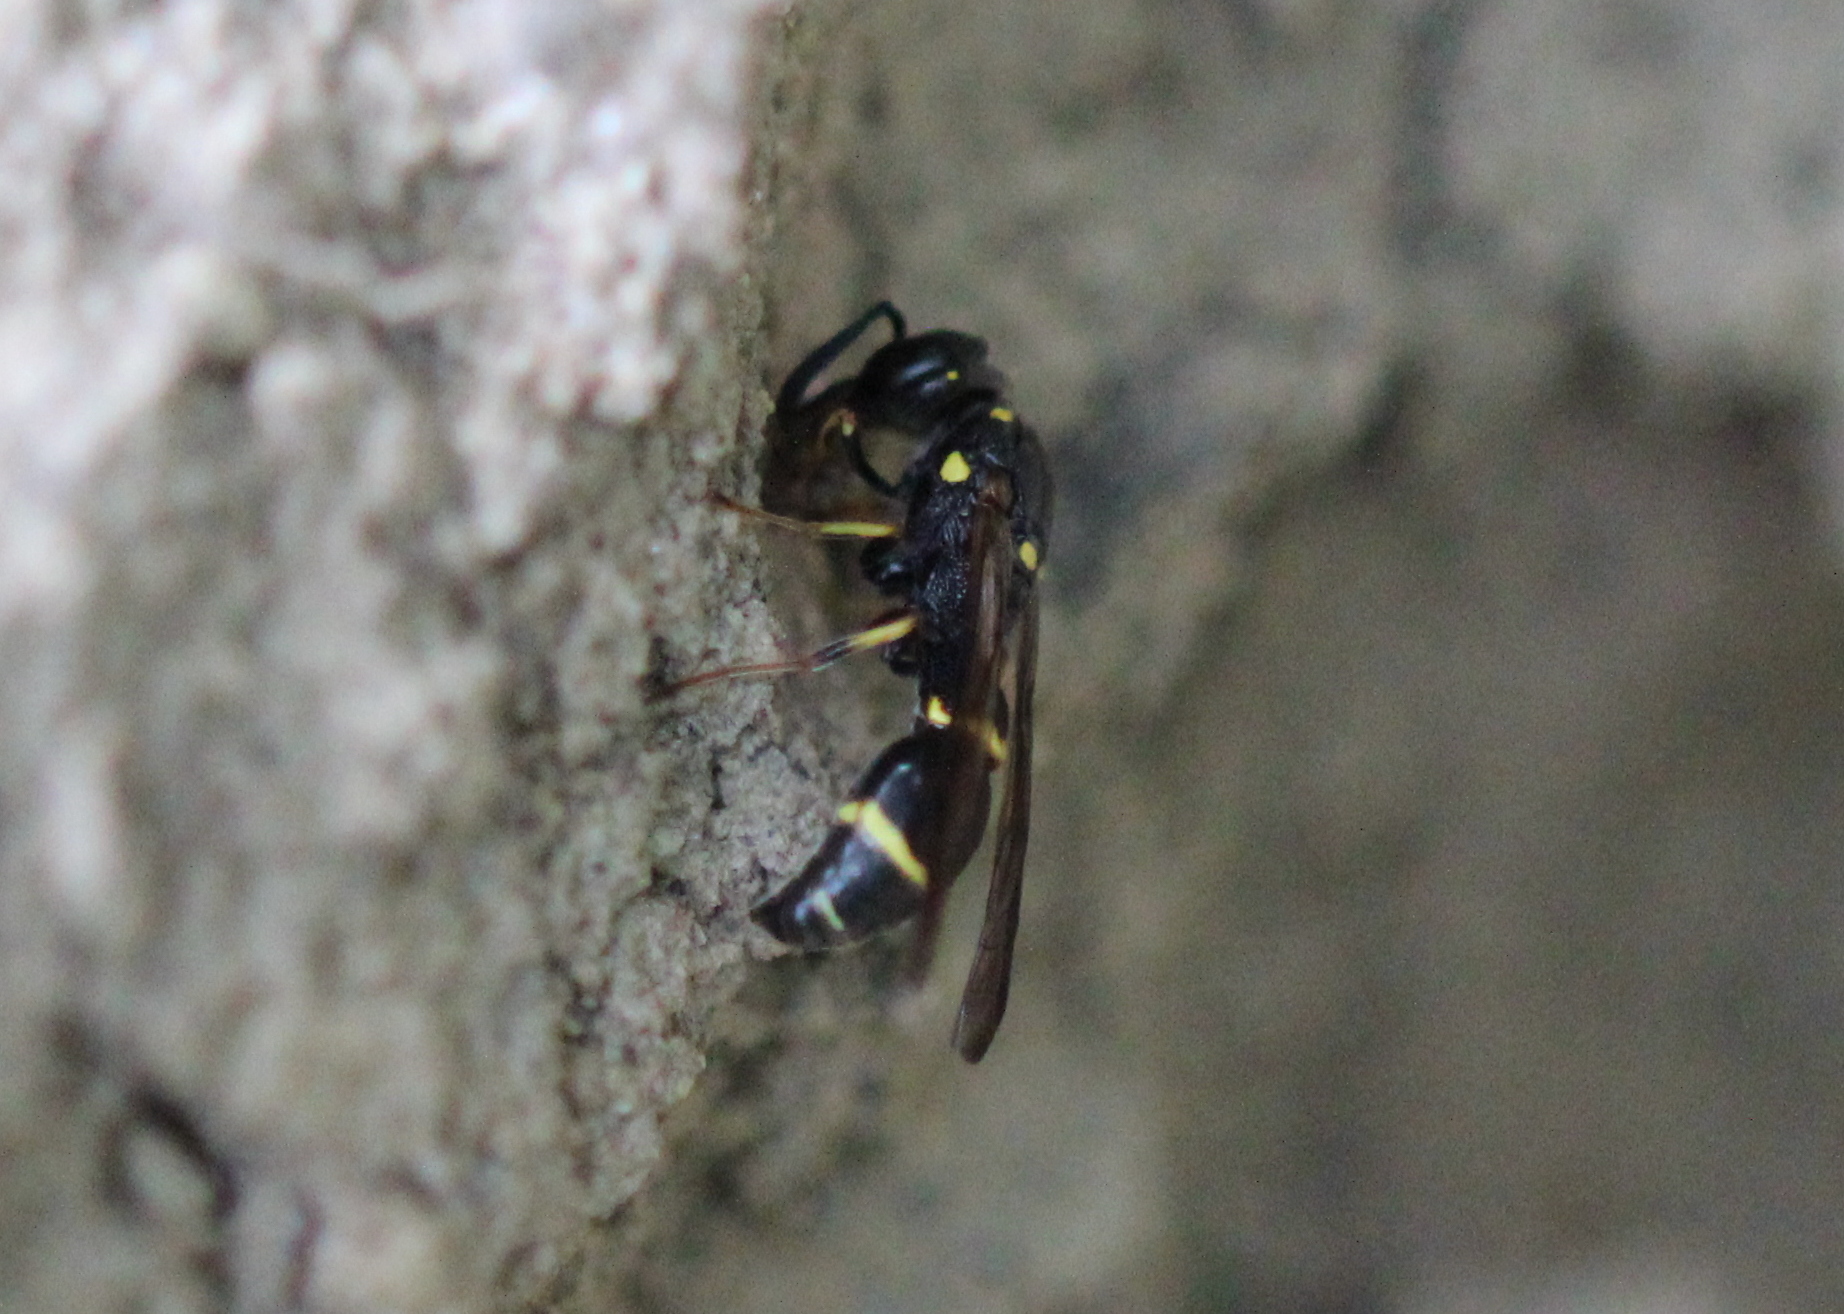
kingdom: Animalia
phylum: Arthropoda
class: Insecta
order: Hymenoptera
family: Eumenidae
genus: Symmorphus
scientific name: Symmorphus canadensis
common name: Canadian potter wasp
